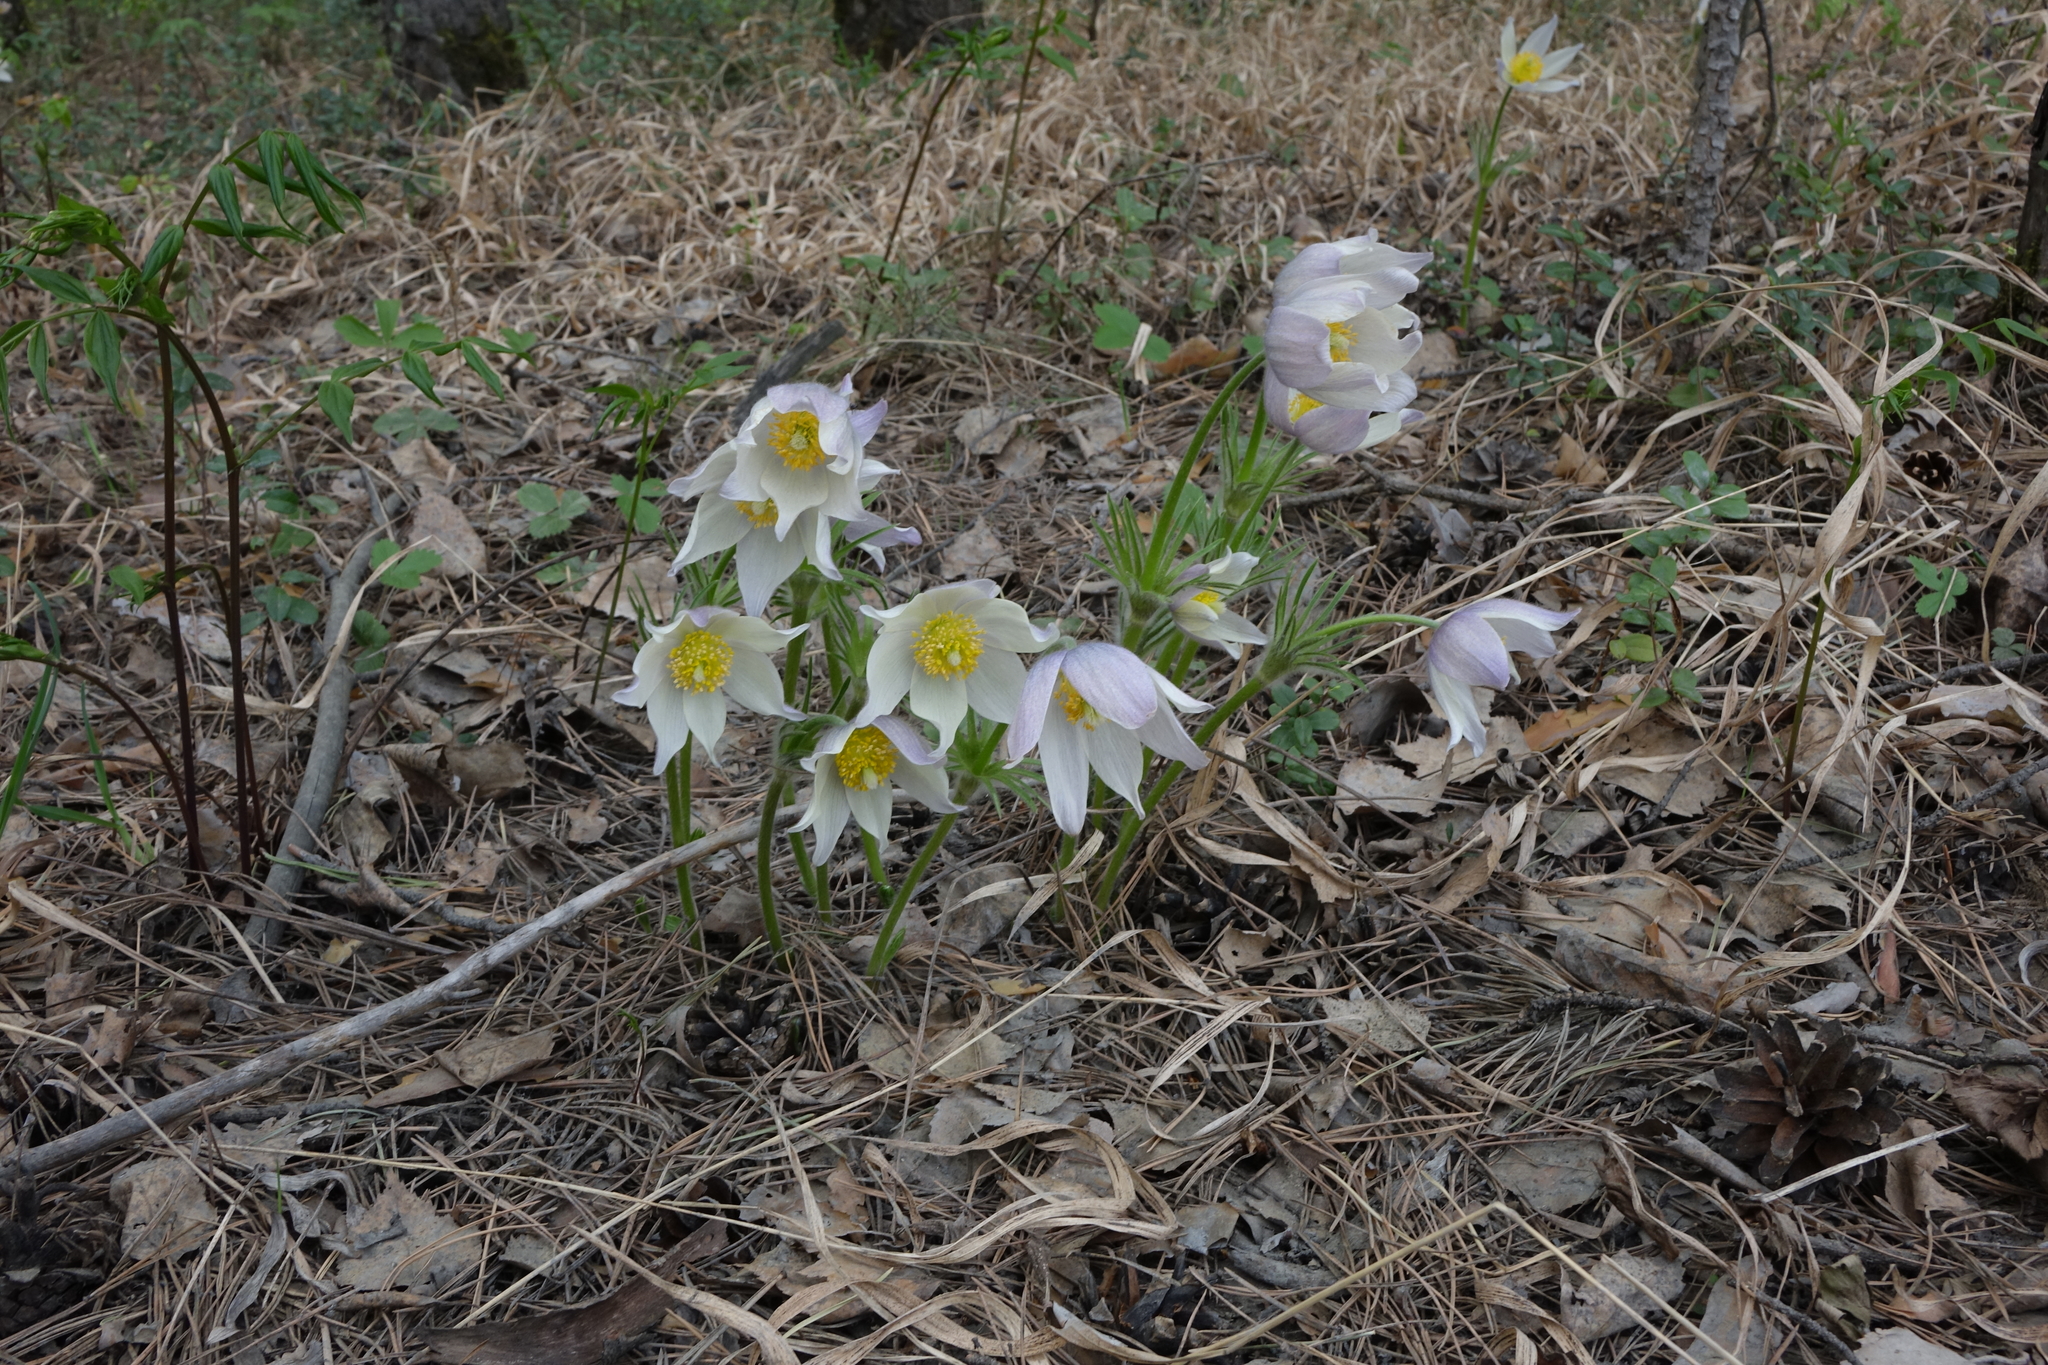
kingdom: Plantae
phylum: Tracheophyta
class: Magnoliopsida
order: Ranunculales
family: Ranunculaceae
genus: Pulsatilla
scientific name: Pulsatilla patens
